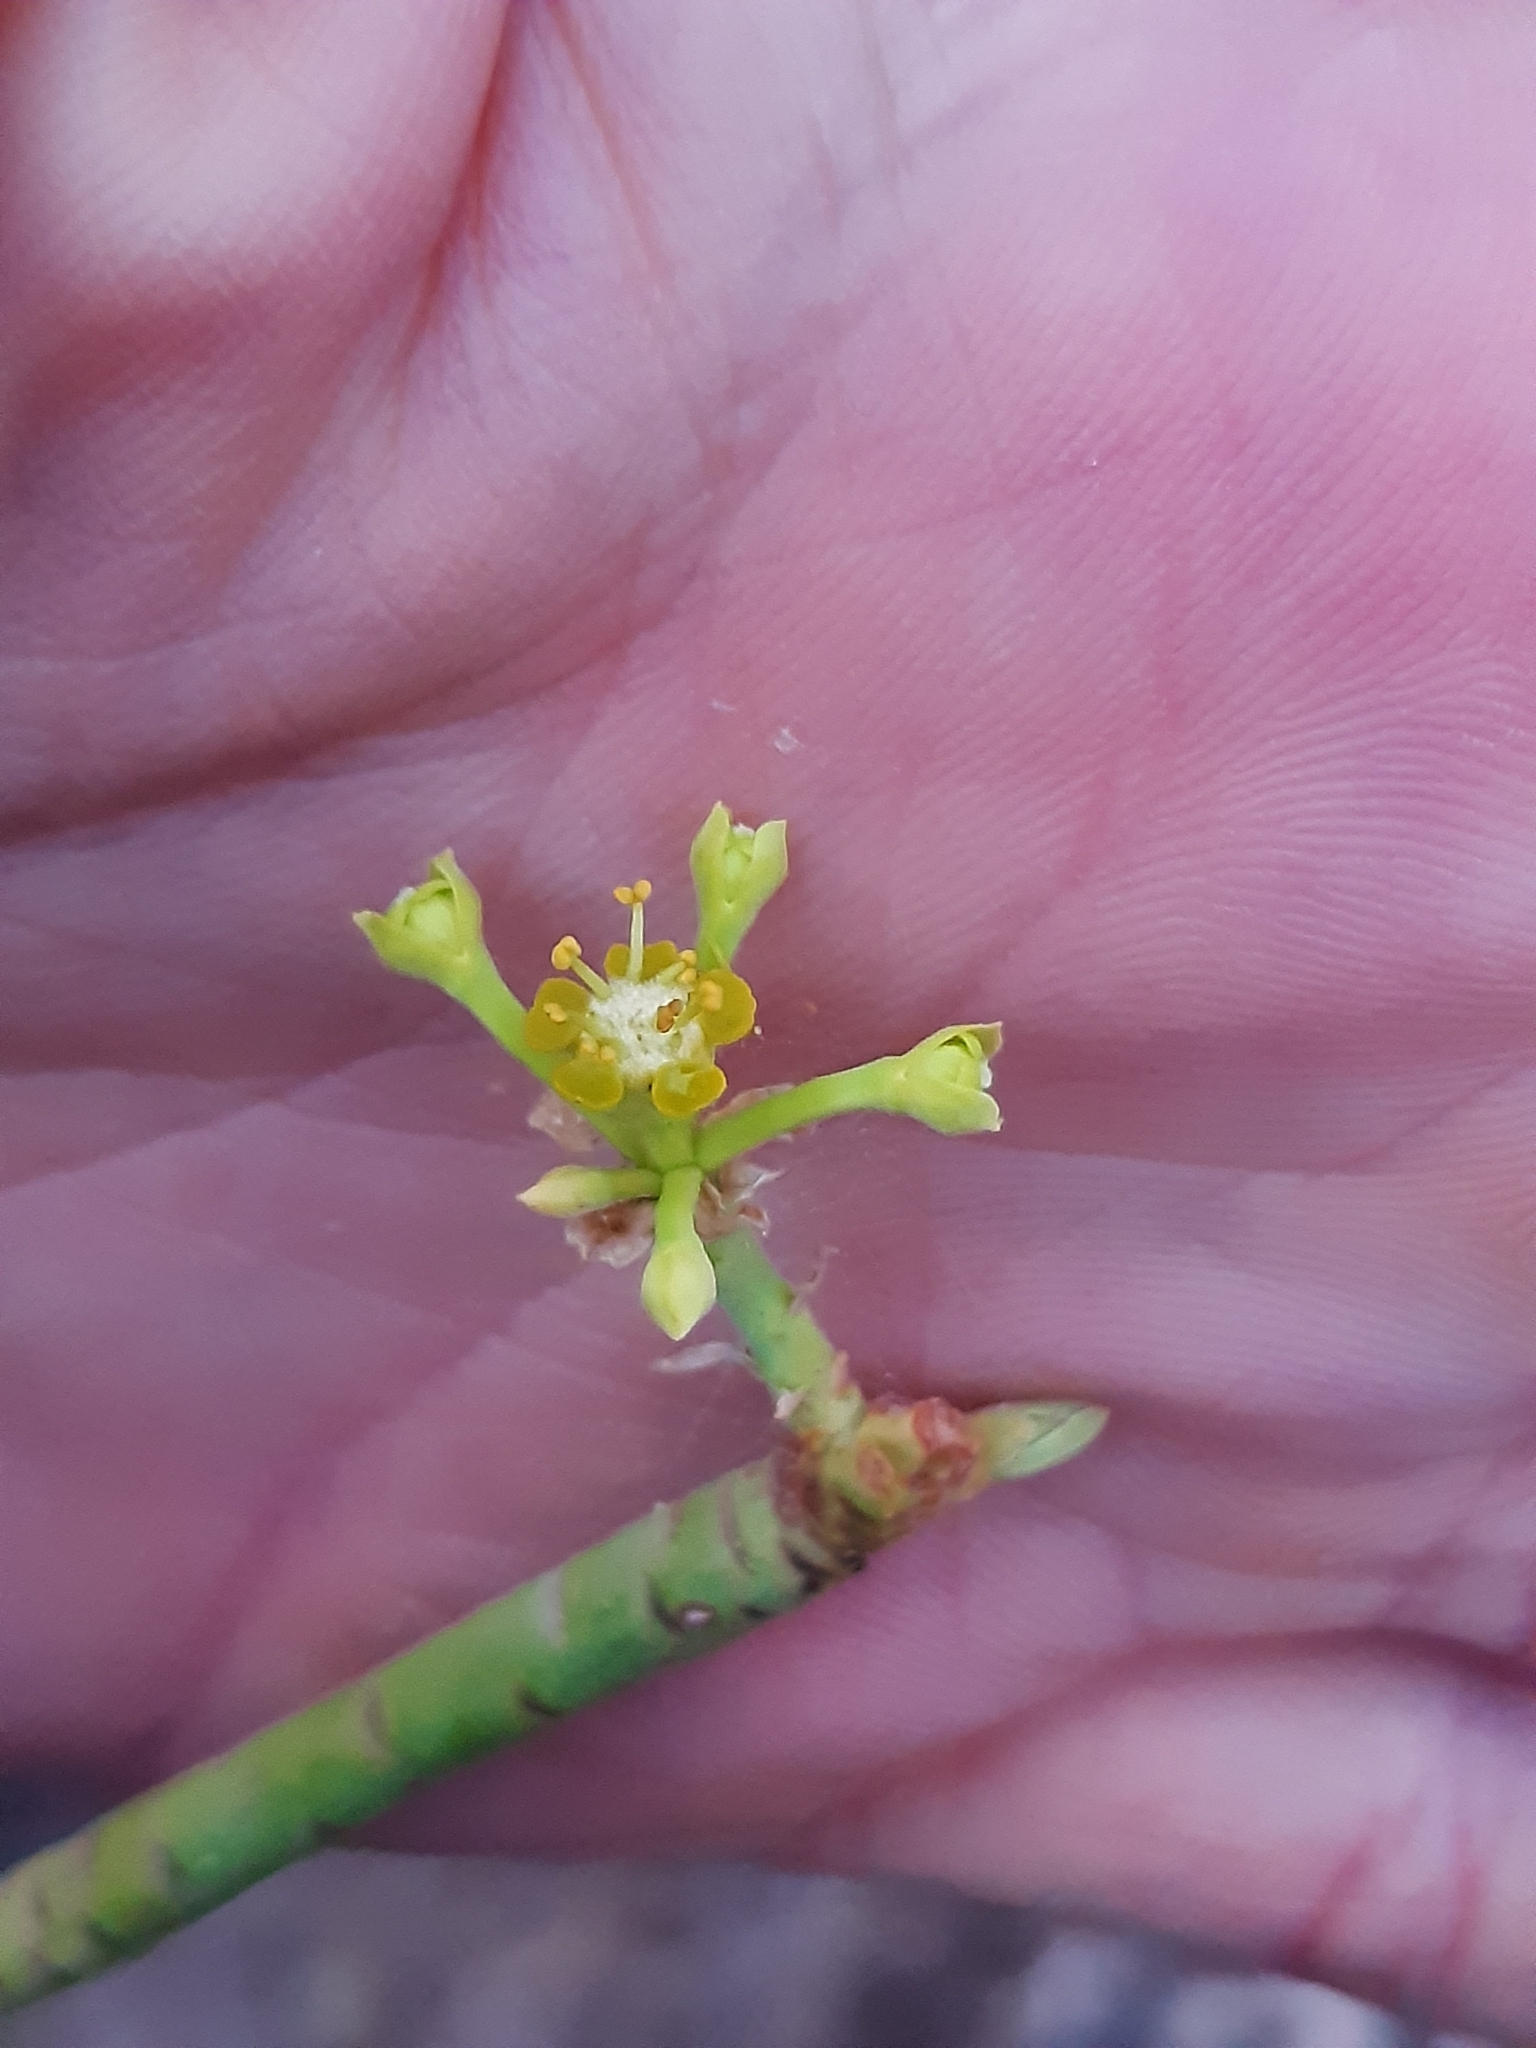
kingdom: Plantae
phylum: Tracheophyta
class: Magnoliopsida
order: Malpighiales
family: Euphorbiaceae
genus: Euphorbia
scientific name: Euphorbia lamarckii
